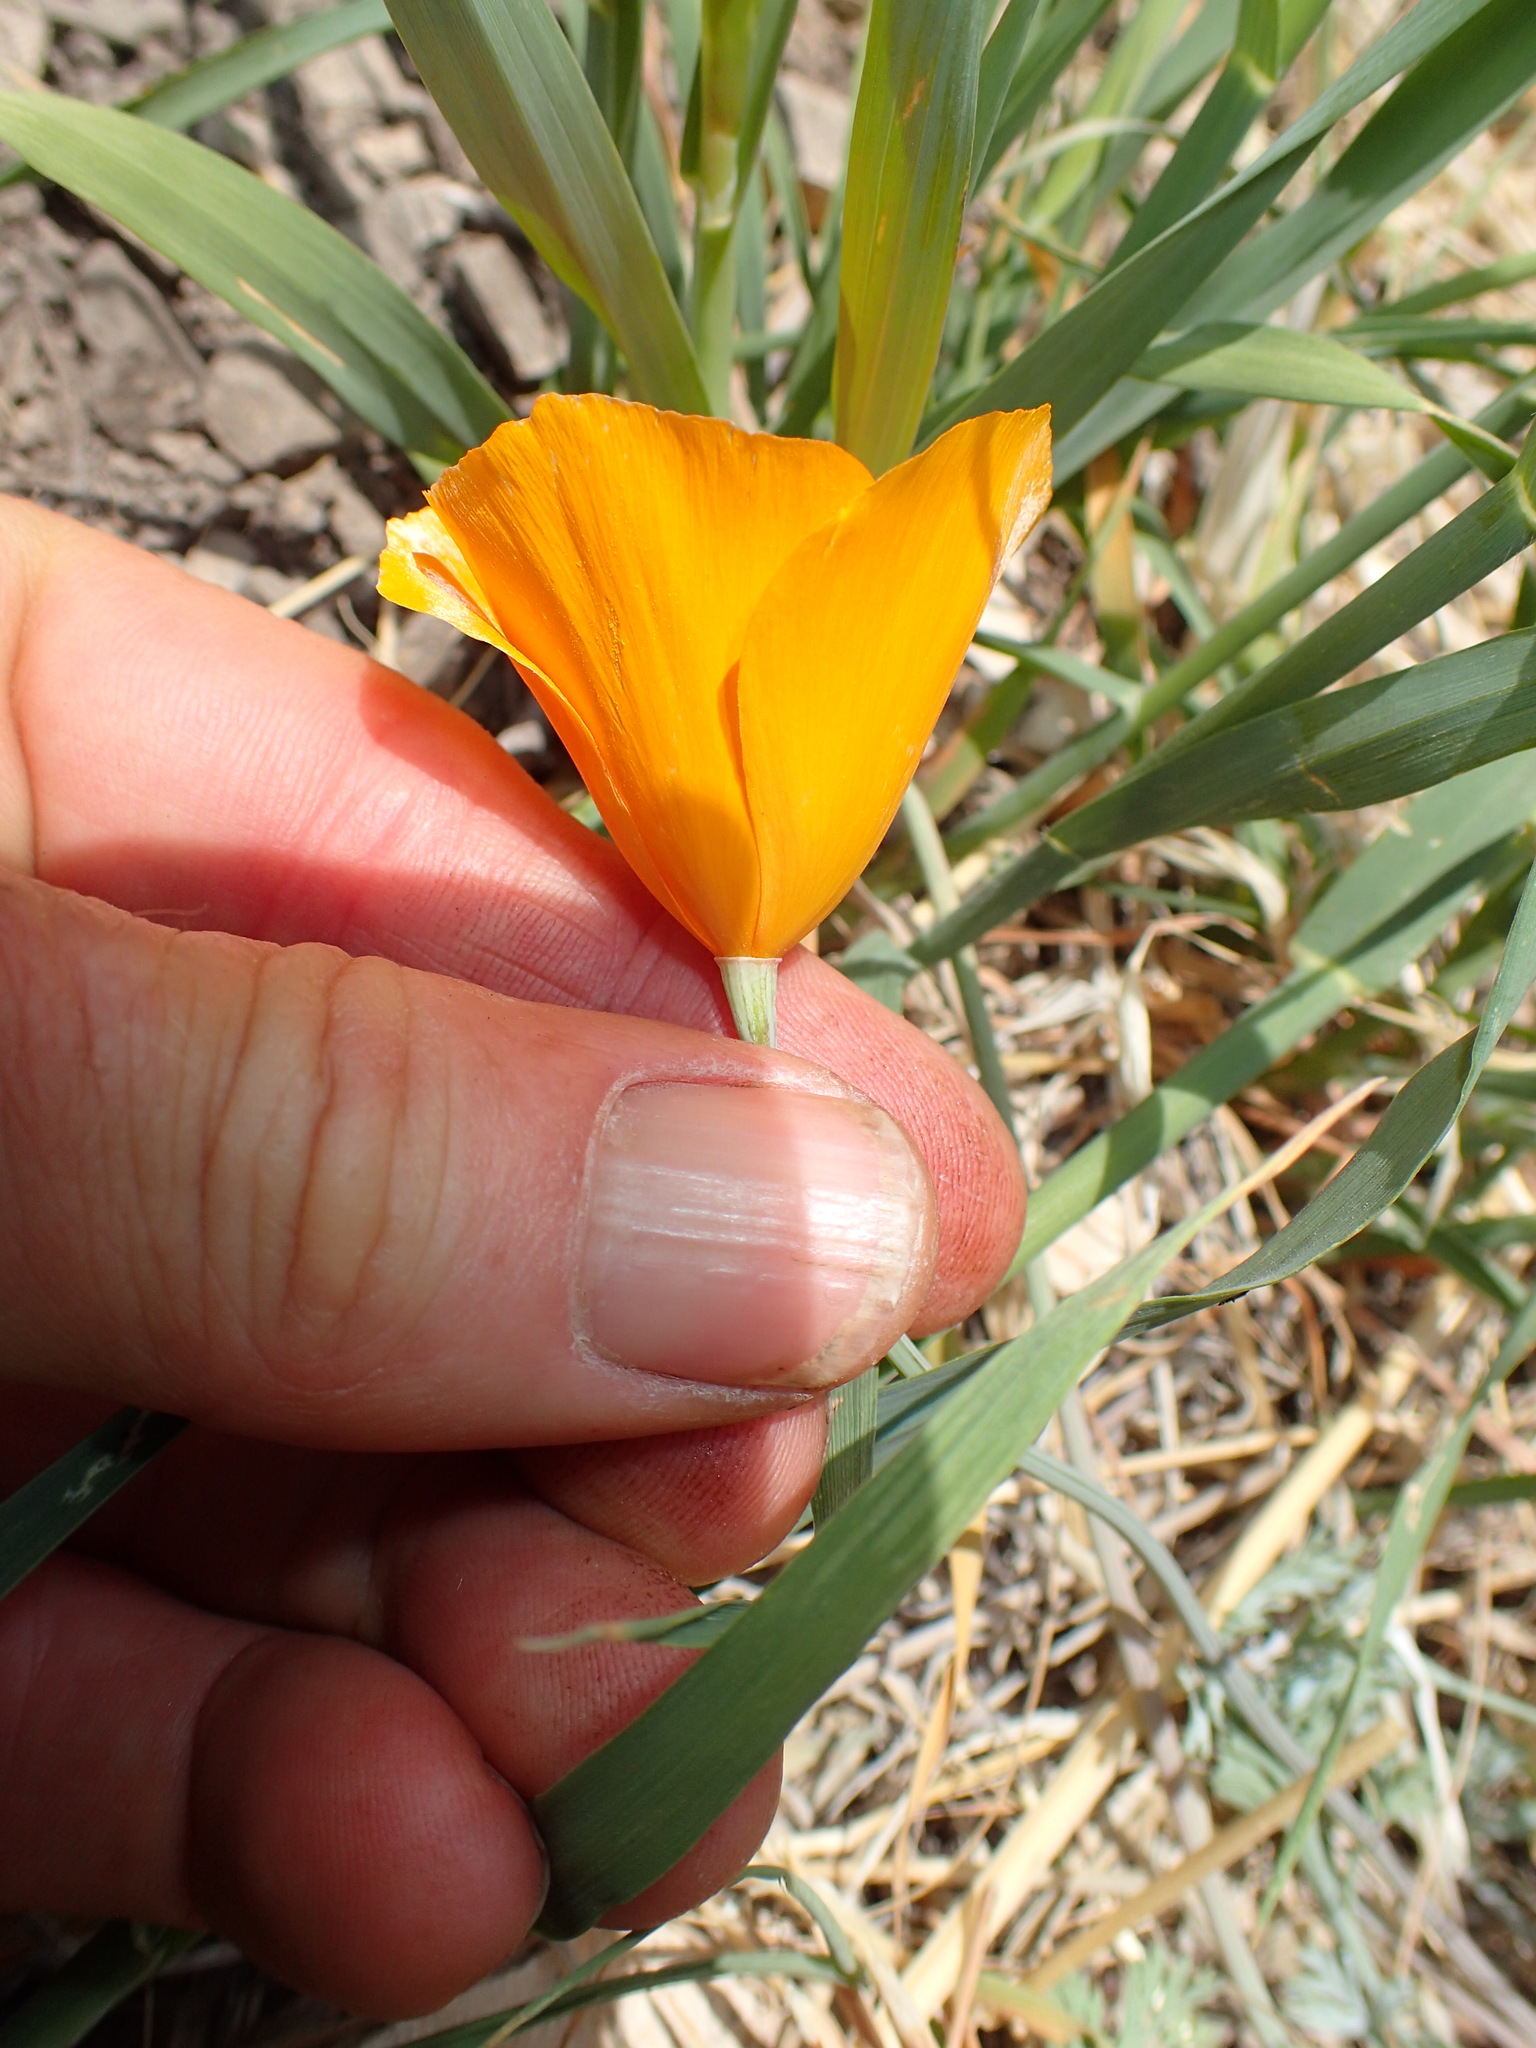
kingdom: Plantae
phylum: Tracheophyta
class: Magnoliopsida
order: Ranunculales
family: Papaveraceae
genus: Eschscholzia
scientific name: Eschscholzia caespitosa
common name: Tufted california-poppy
